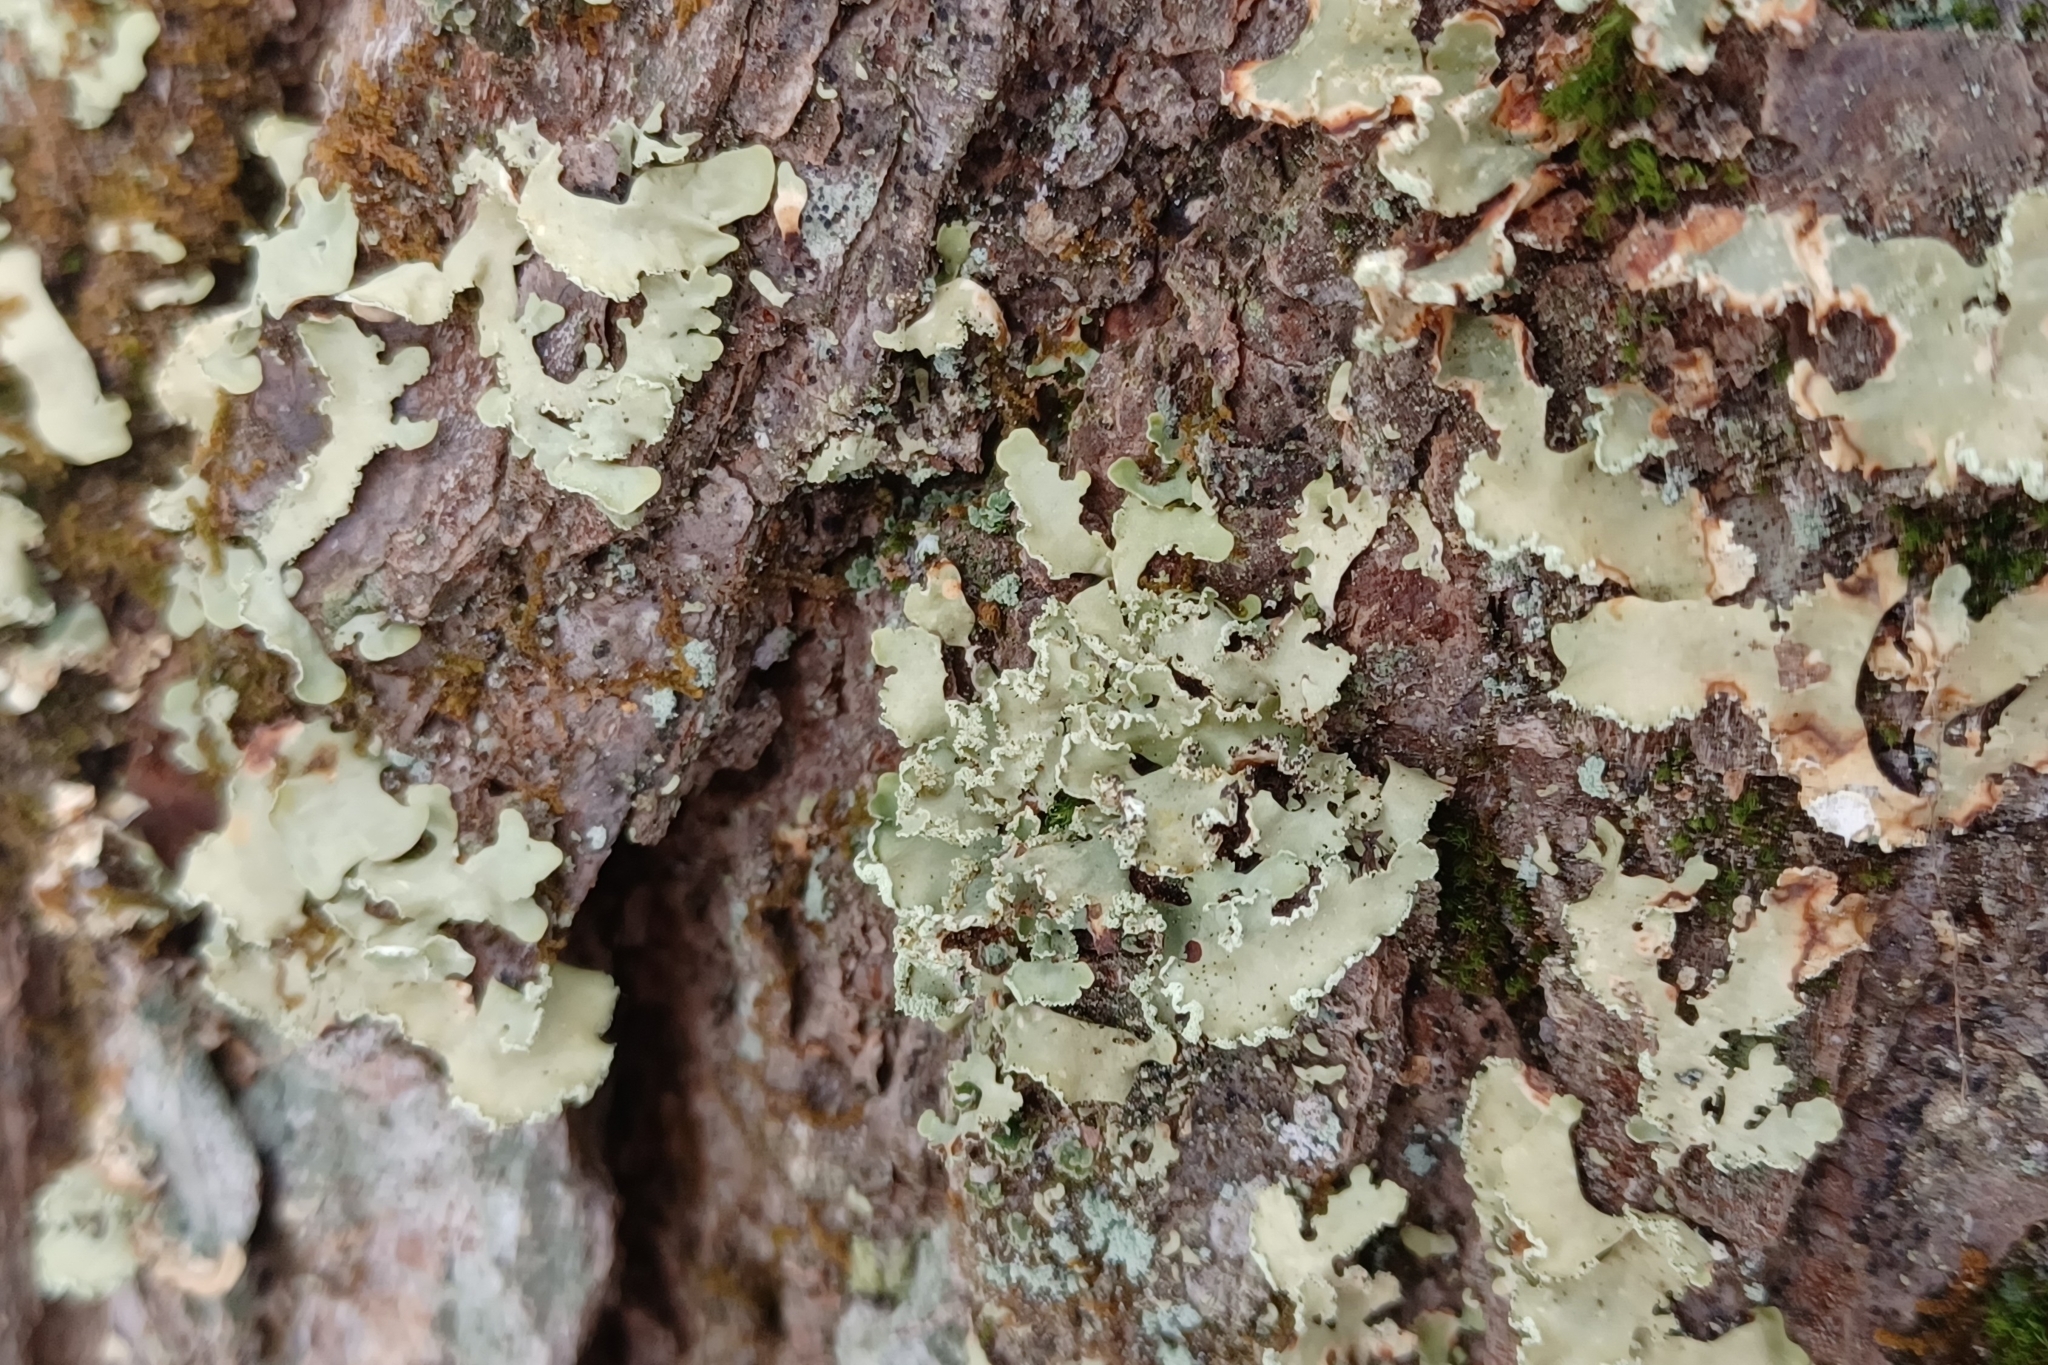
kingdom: Fungi
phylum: Ascomycota
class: Lecanoromycetes
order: Lecanorales
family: Parmeliaceae
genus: Usnocetraria
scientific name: Usnocetraria oakesiana
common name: Yellow ribbon lichen
